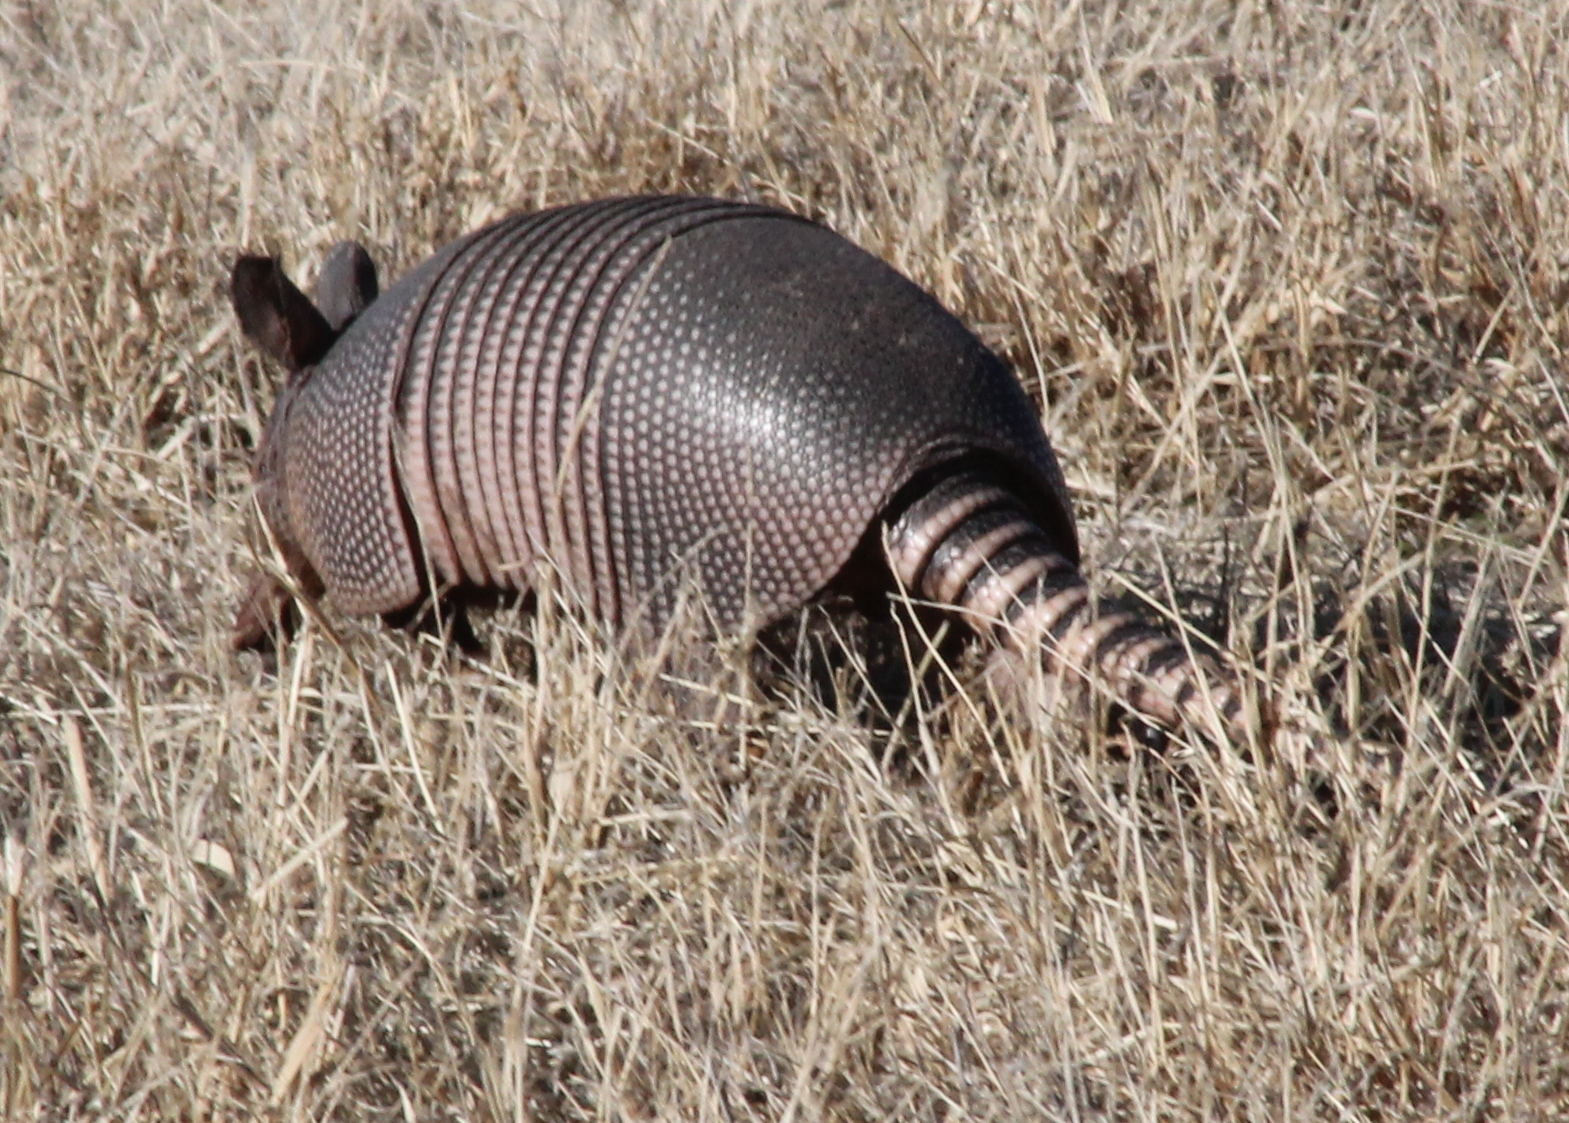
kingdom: Animalia
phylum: Chordata
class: Mammalia
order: Cingulata
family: Dasypodidae
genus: Dasypus
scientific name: Dasypus novemcinctus
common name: Nine-banded armadillo
